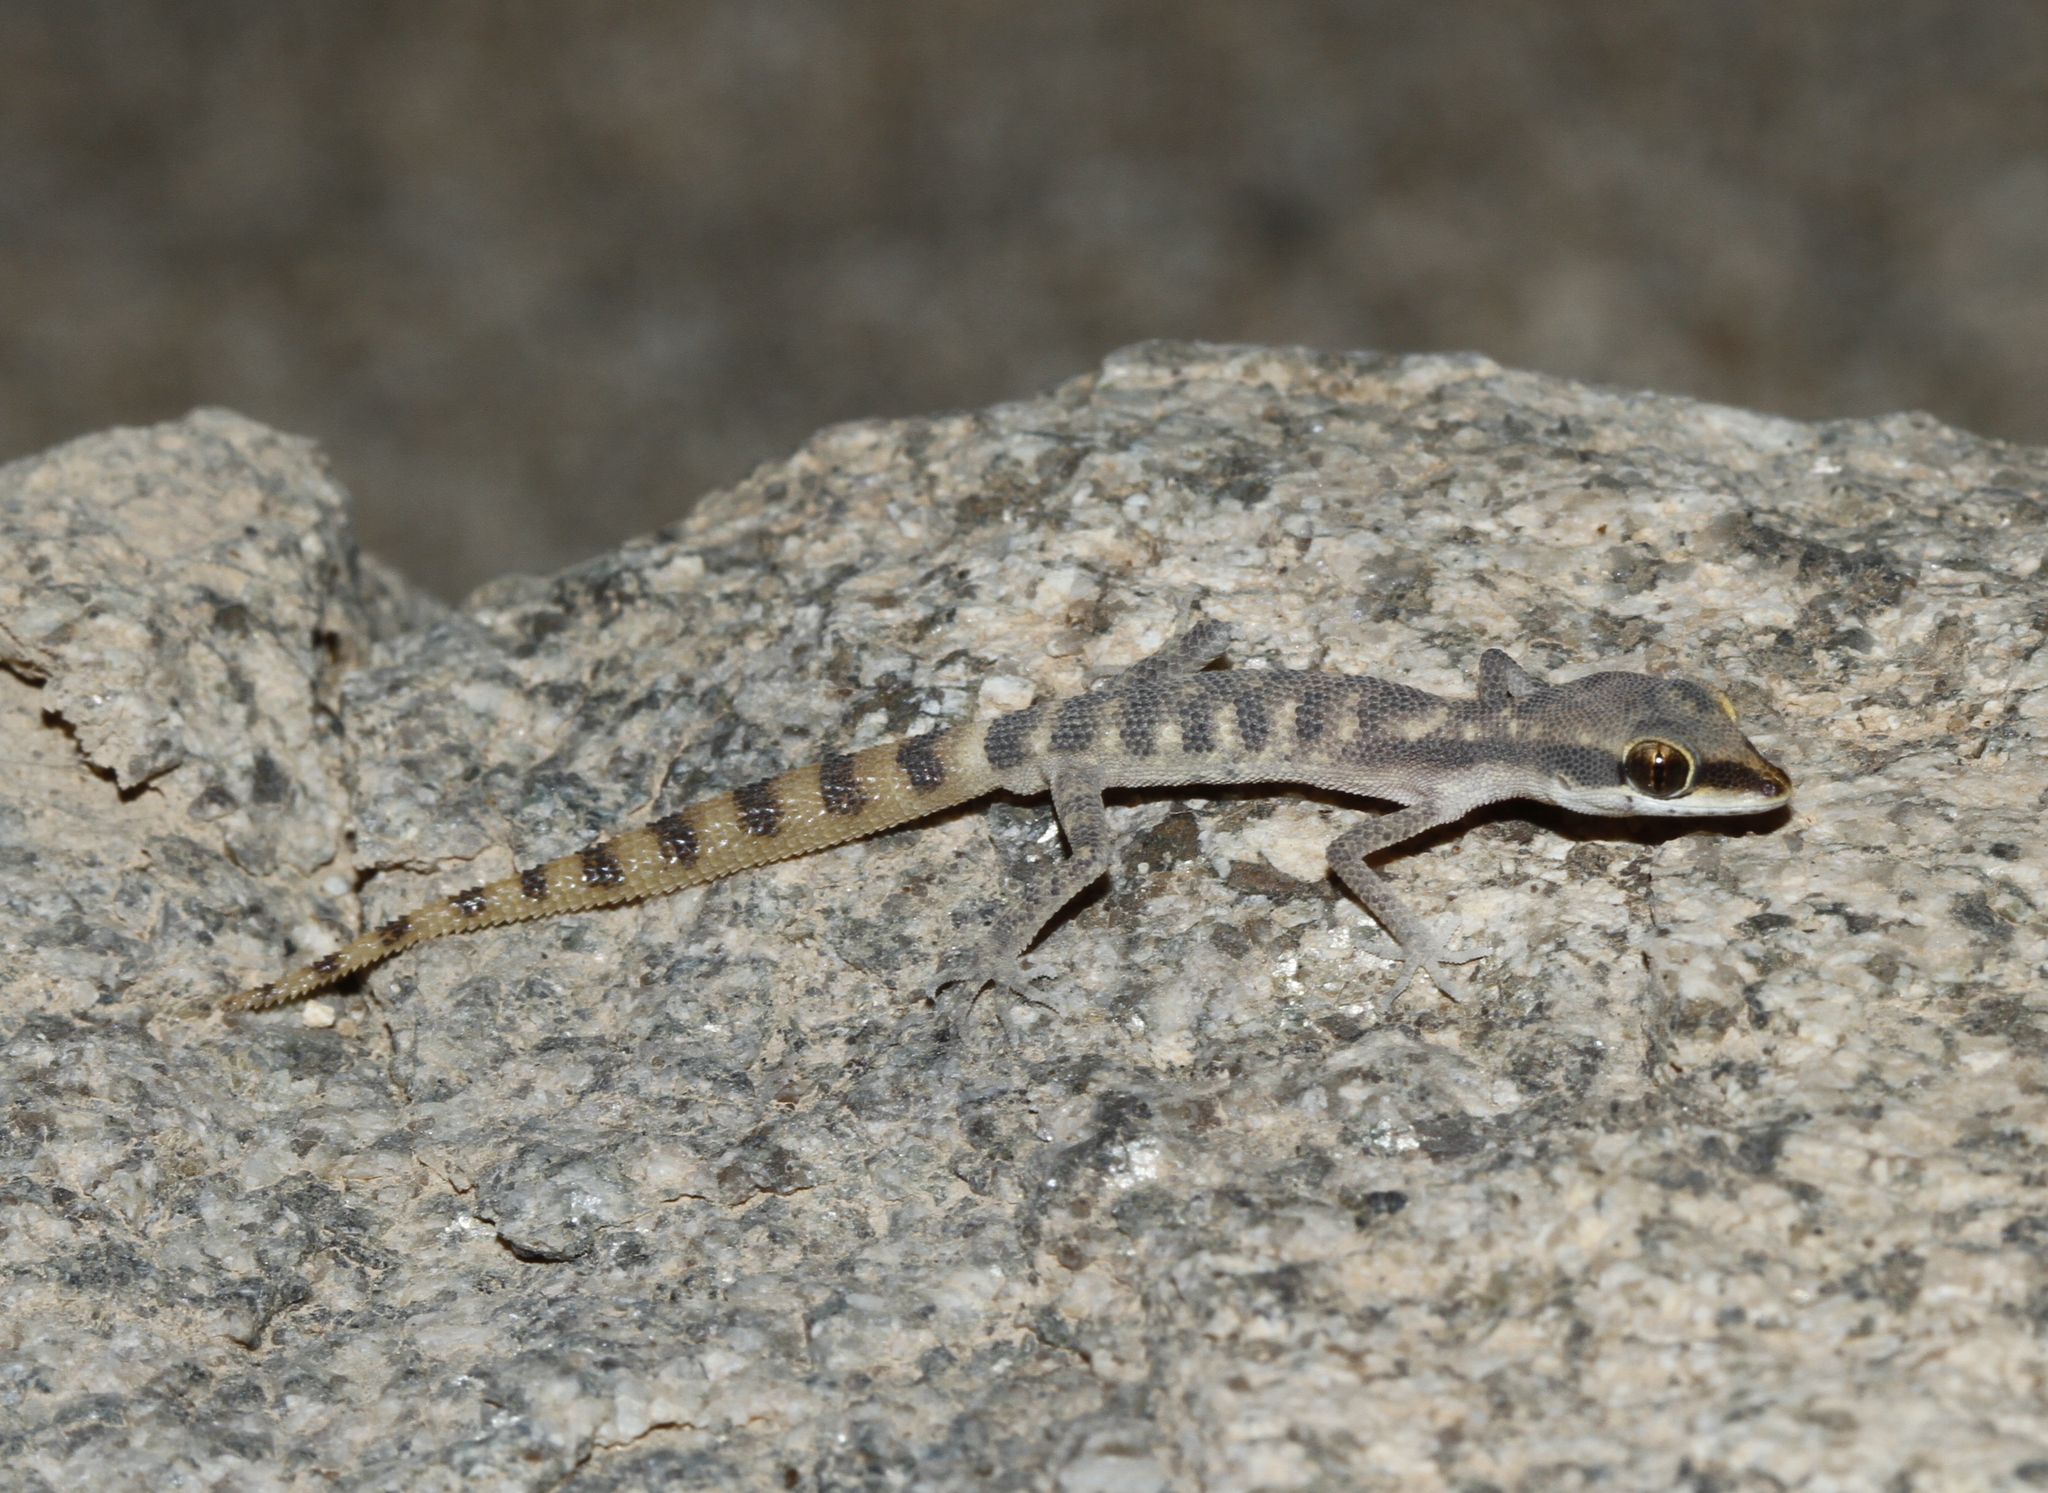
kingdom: Animalia
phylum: Chordata
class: Squamata
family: Gekkonidae
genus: Tropiocolotes
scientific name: Tropiocolotes bisharicus
